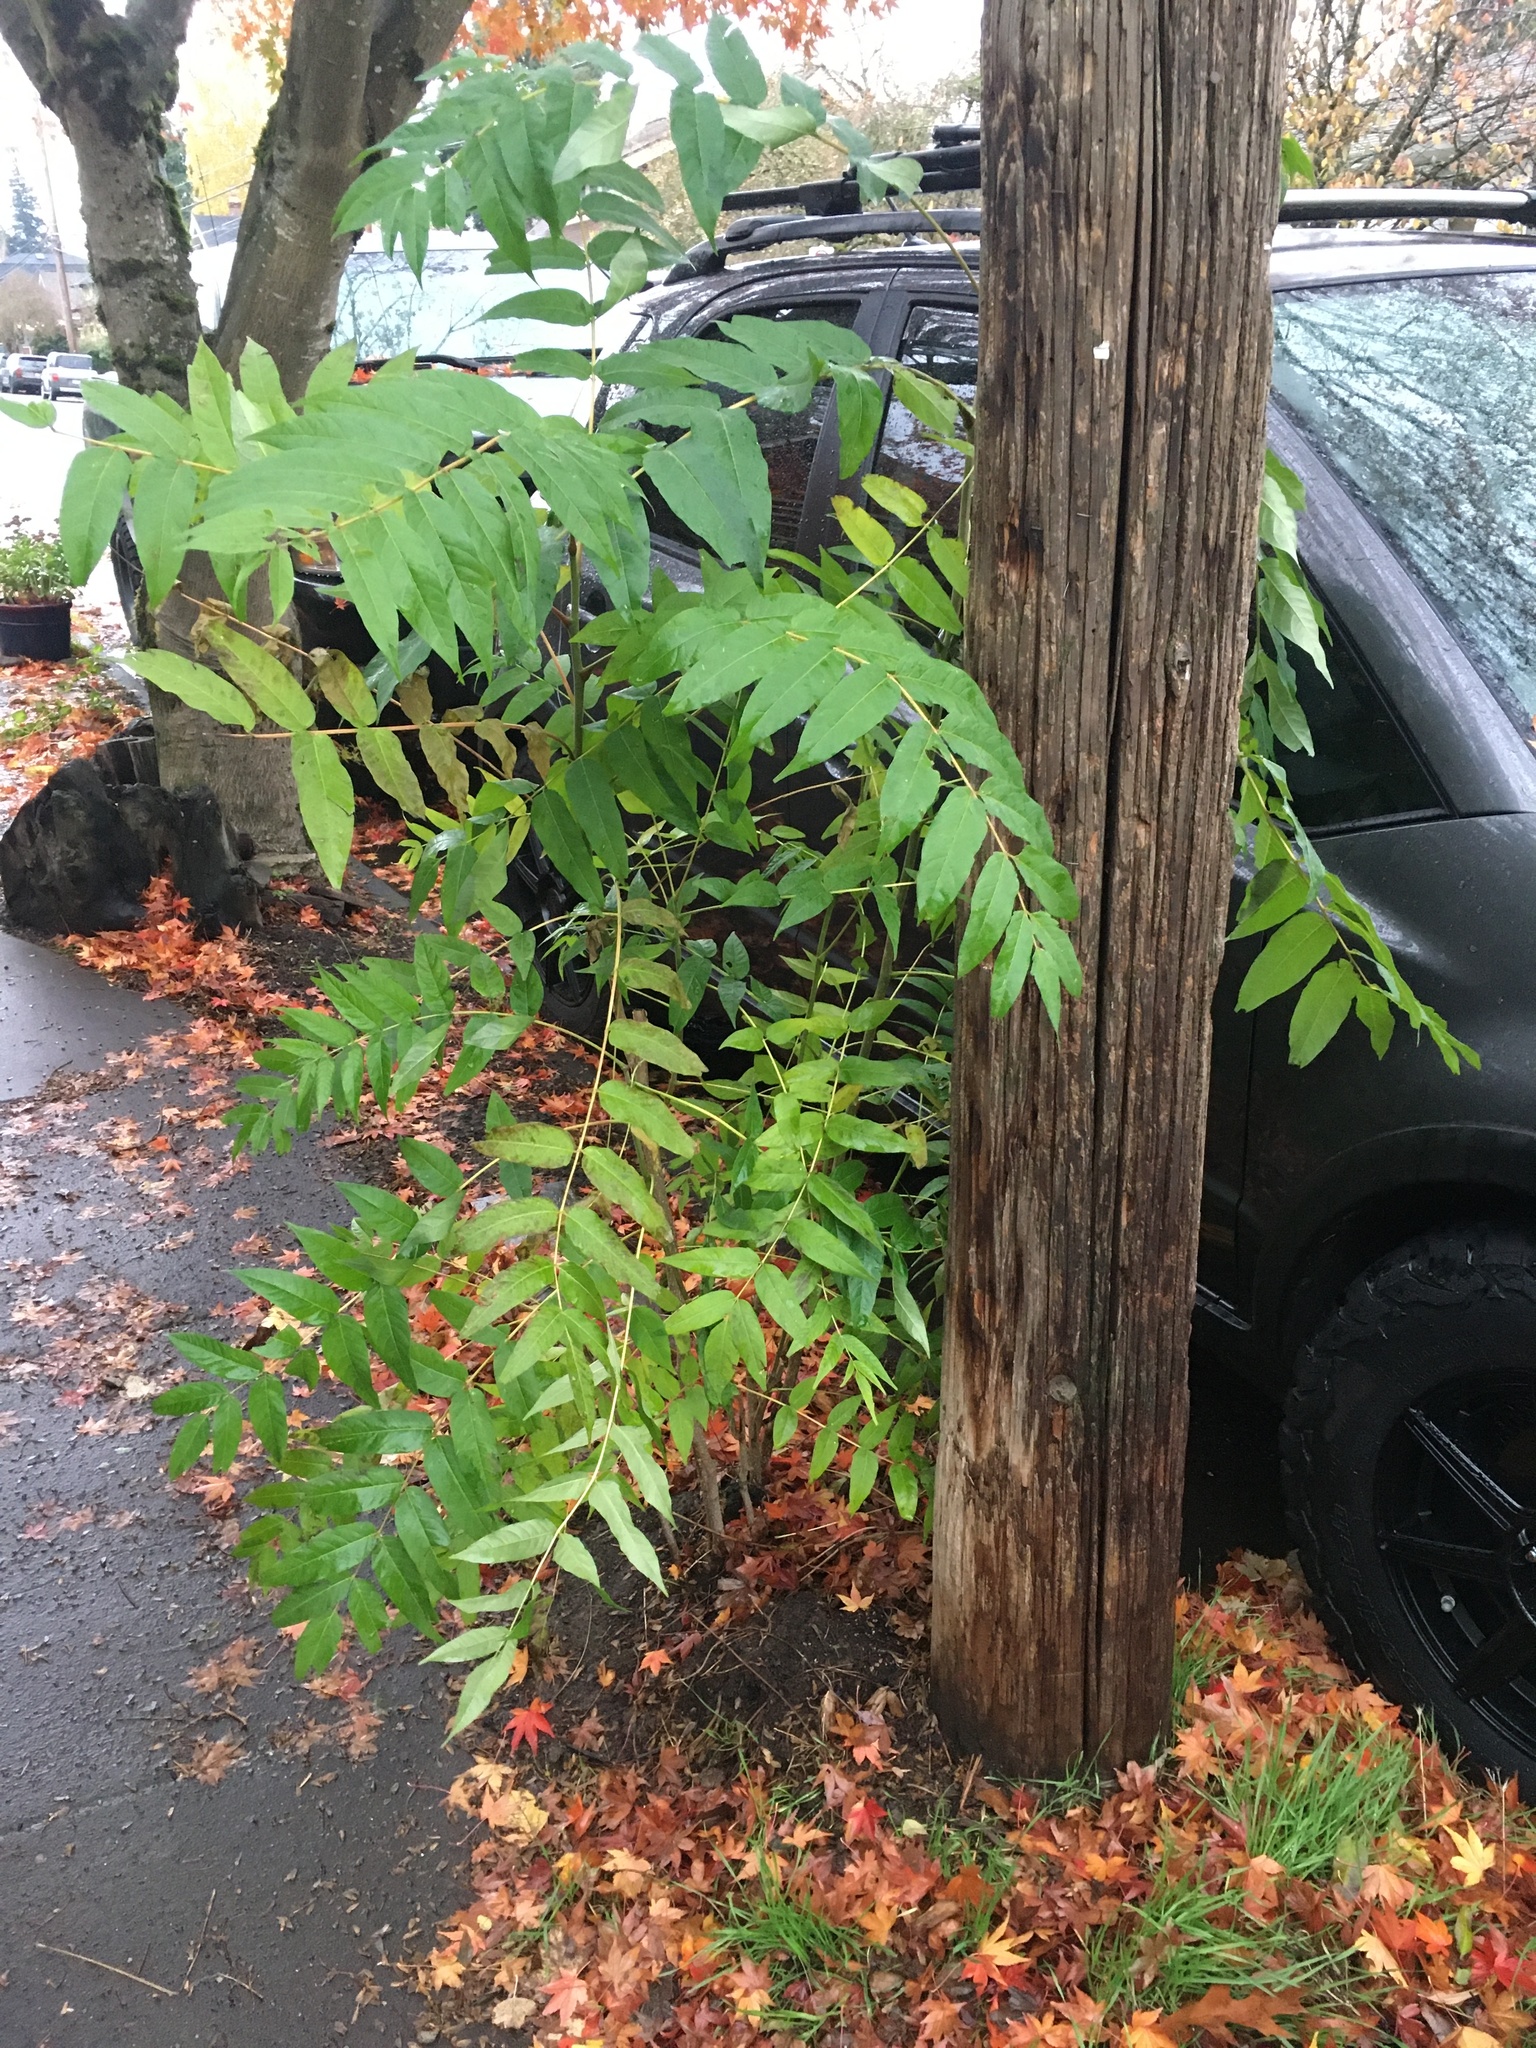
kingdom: Plantae
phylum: Tracheophyta
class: Magnoliopsida
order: Sapindales
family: Simaroubaceae
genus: Ailanthus
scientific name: Ailanthus altissima
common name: Tree-of-heaven
